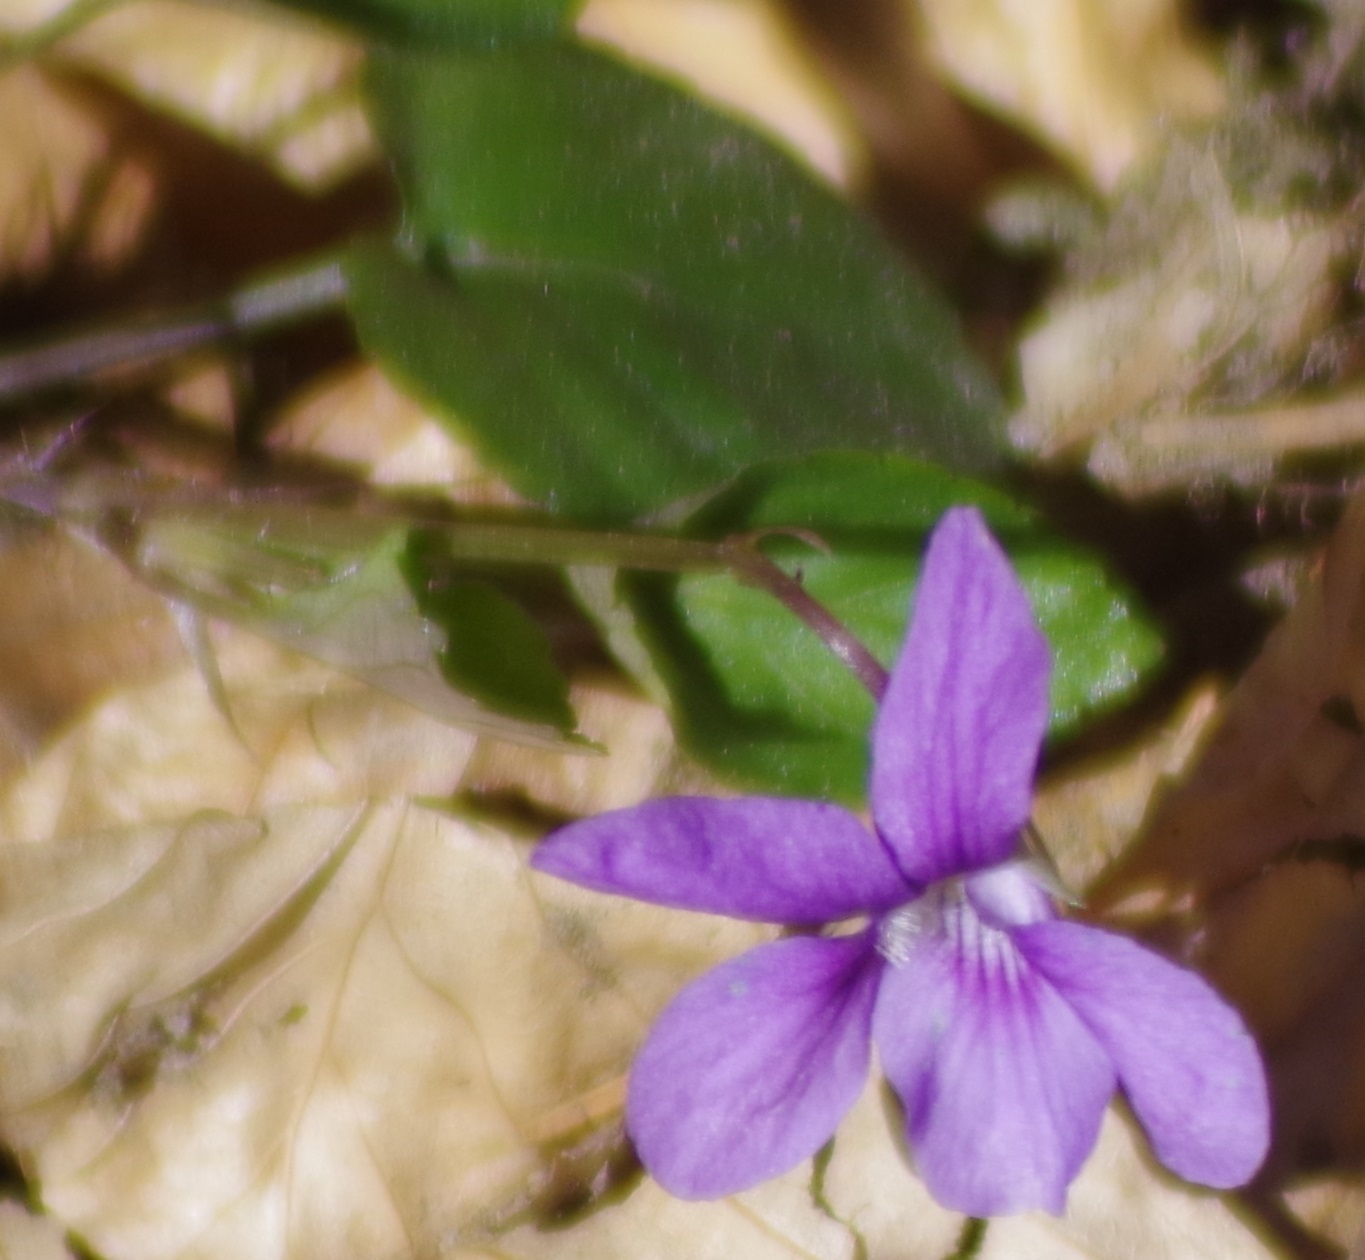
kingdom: Plantae
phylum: Tracheophyta
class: Magnoliopsida
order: Malpighiales
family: Violaceae
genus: Viola
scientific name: Viola reichenbachiana
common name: Early dog-violet
